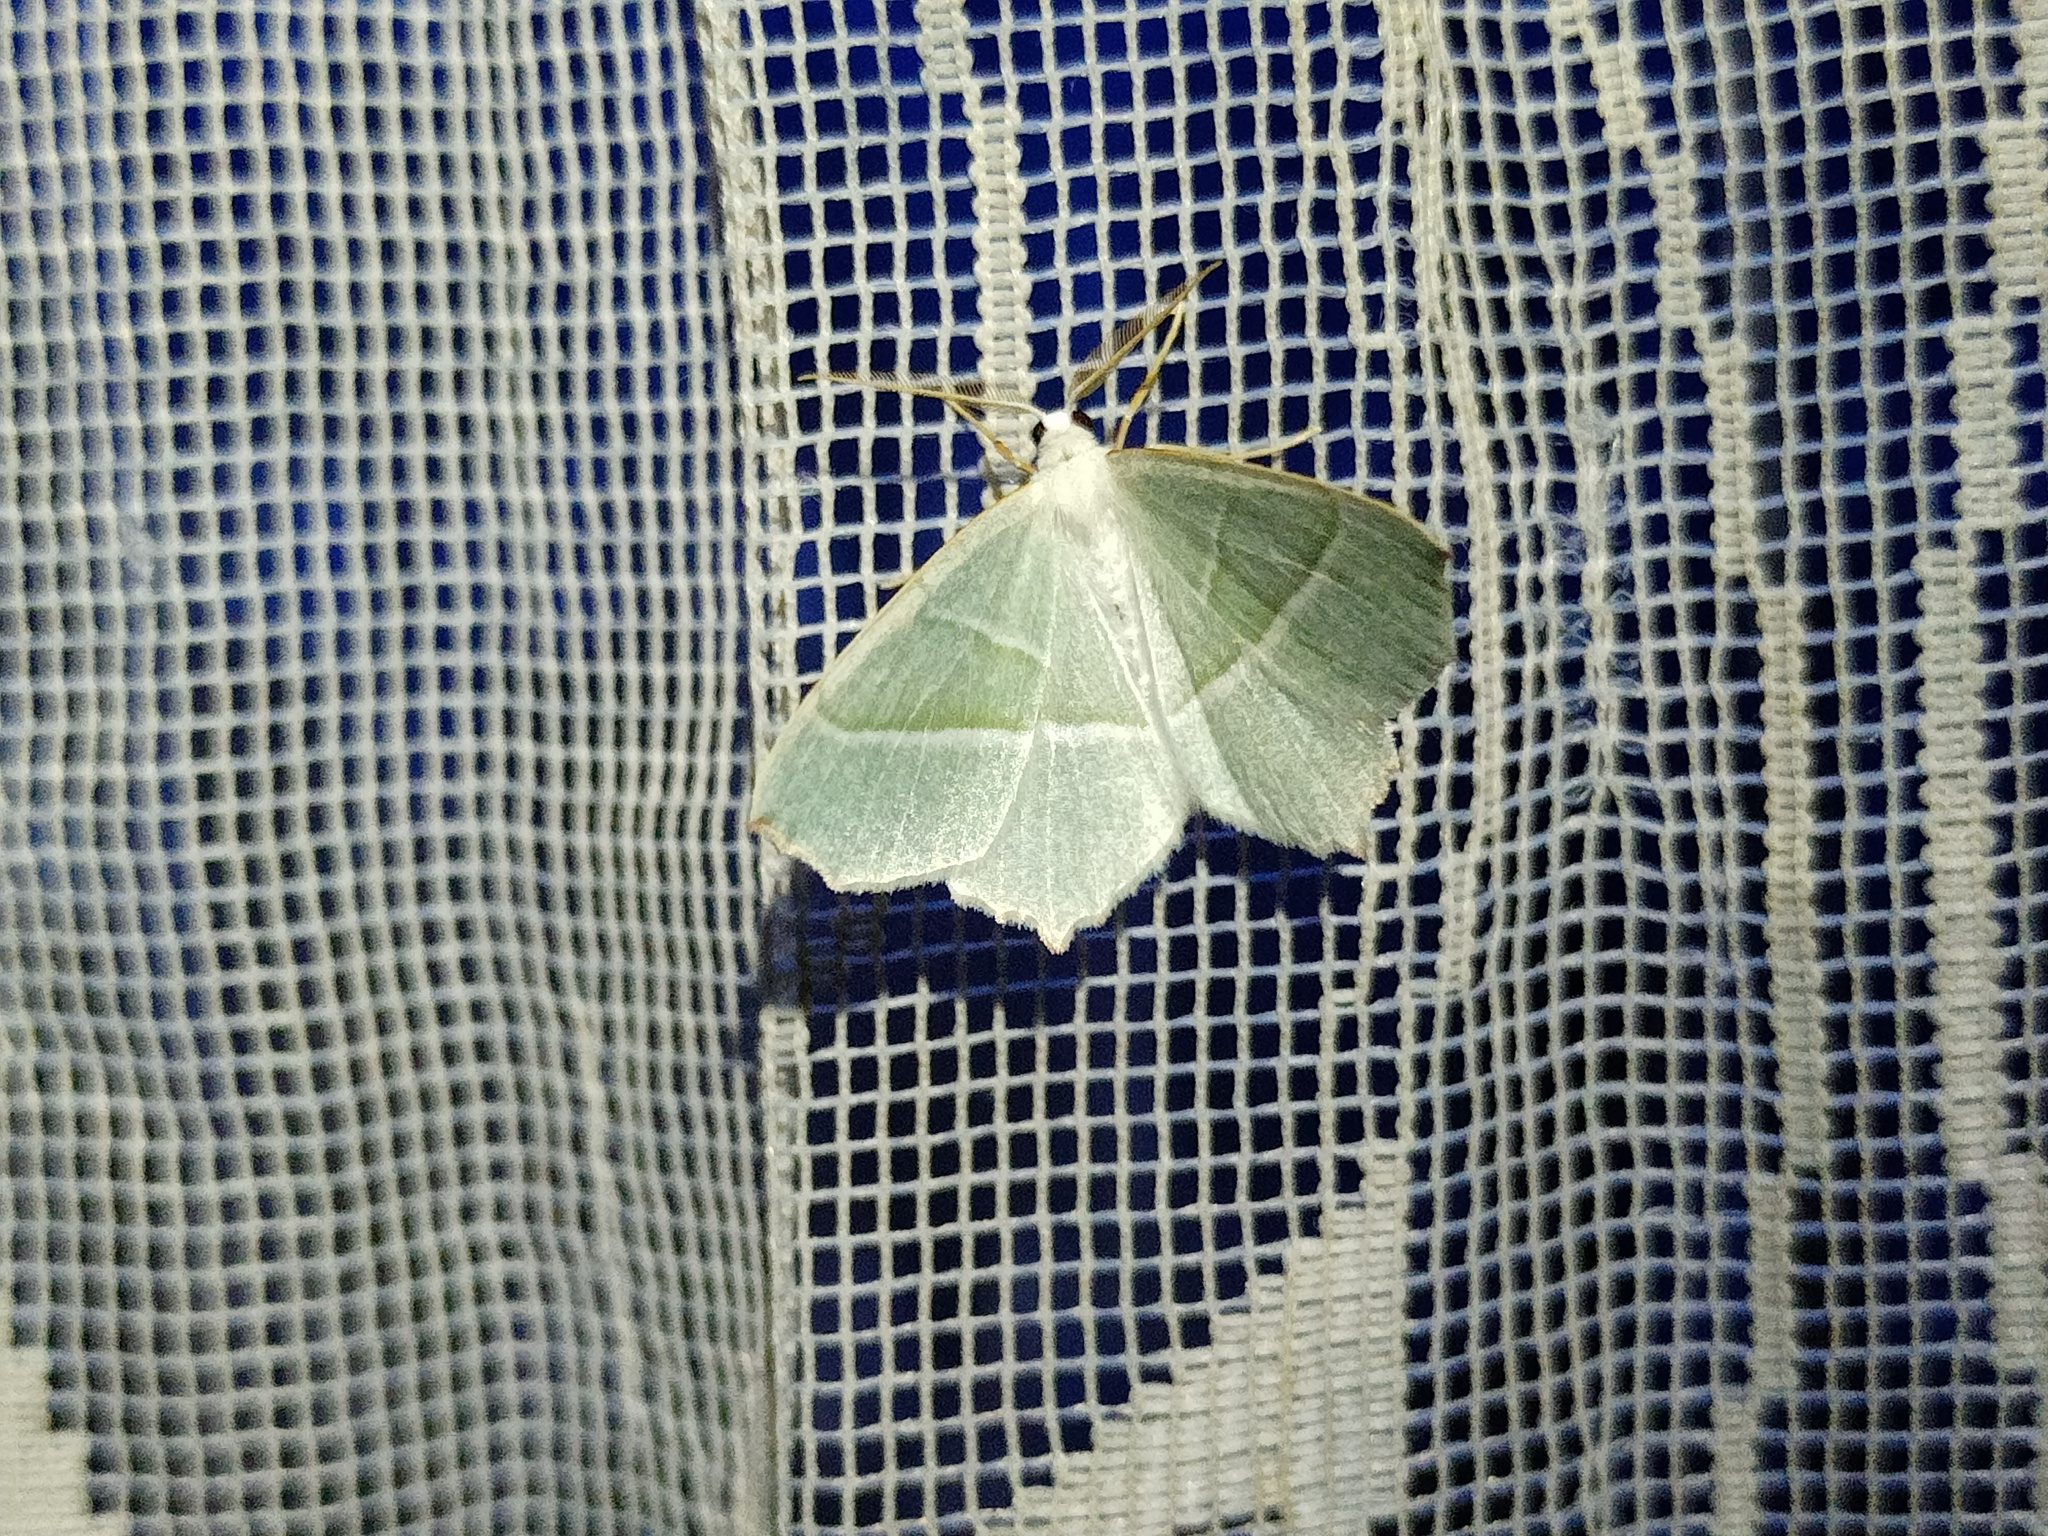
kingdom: Animalia
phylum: Arthropoda
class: Insecta
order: Lepidoptera
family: Geometridae
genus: Campaea
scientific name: Campaea margaritaria
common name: Light emerald
